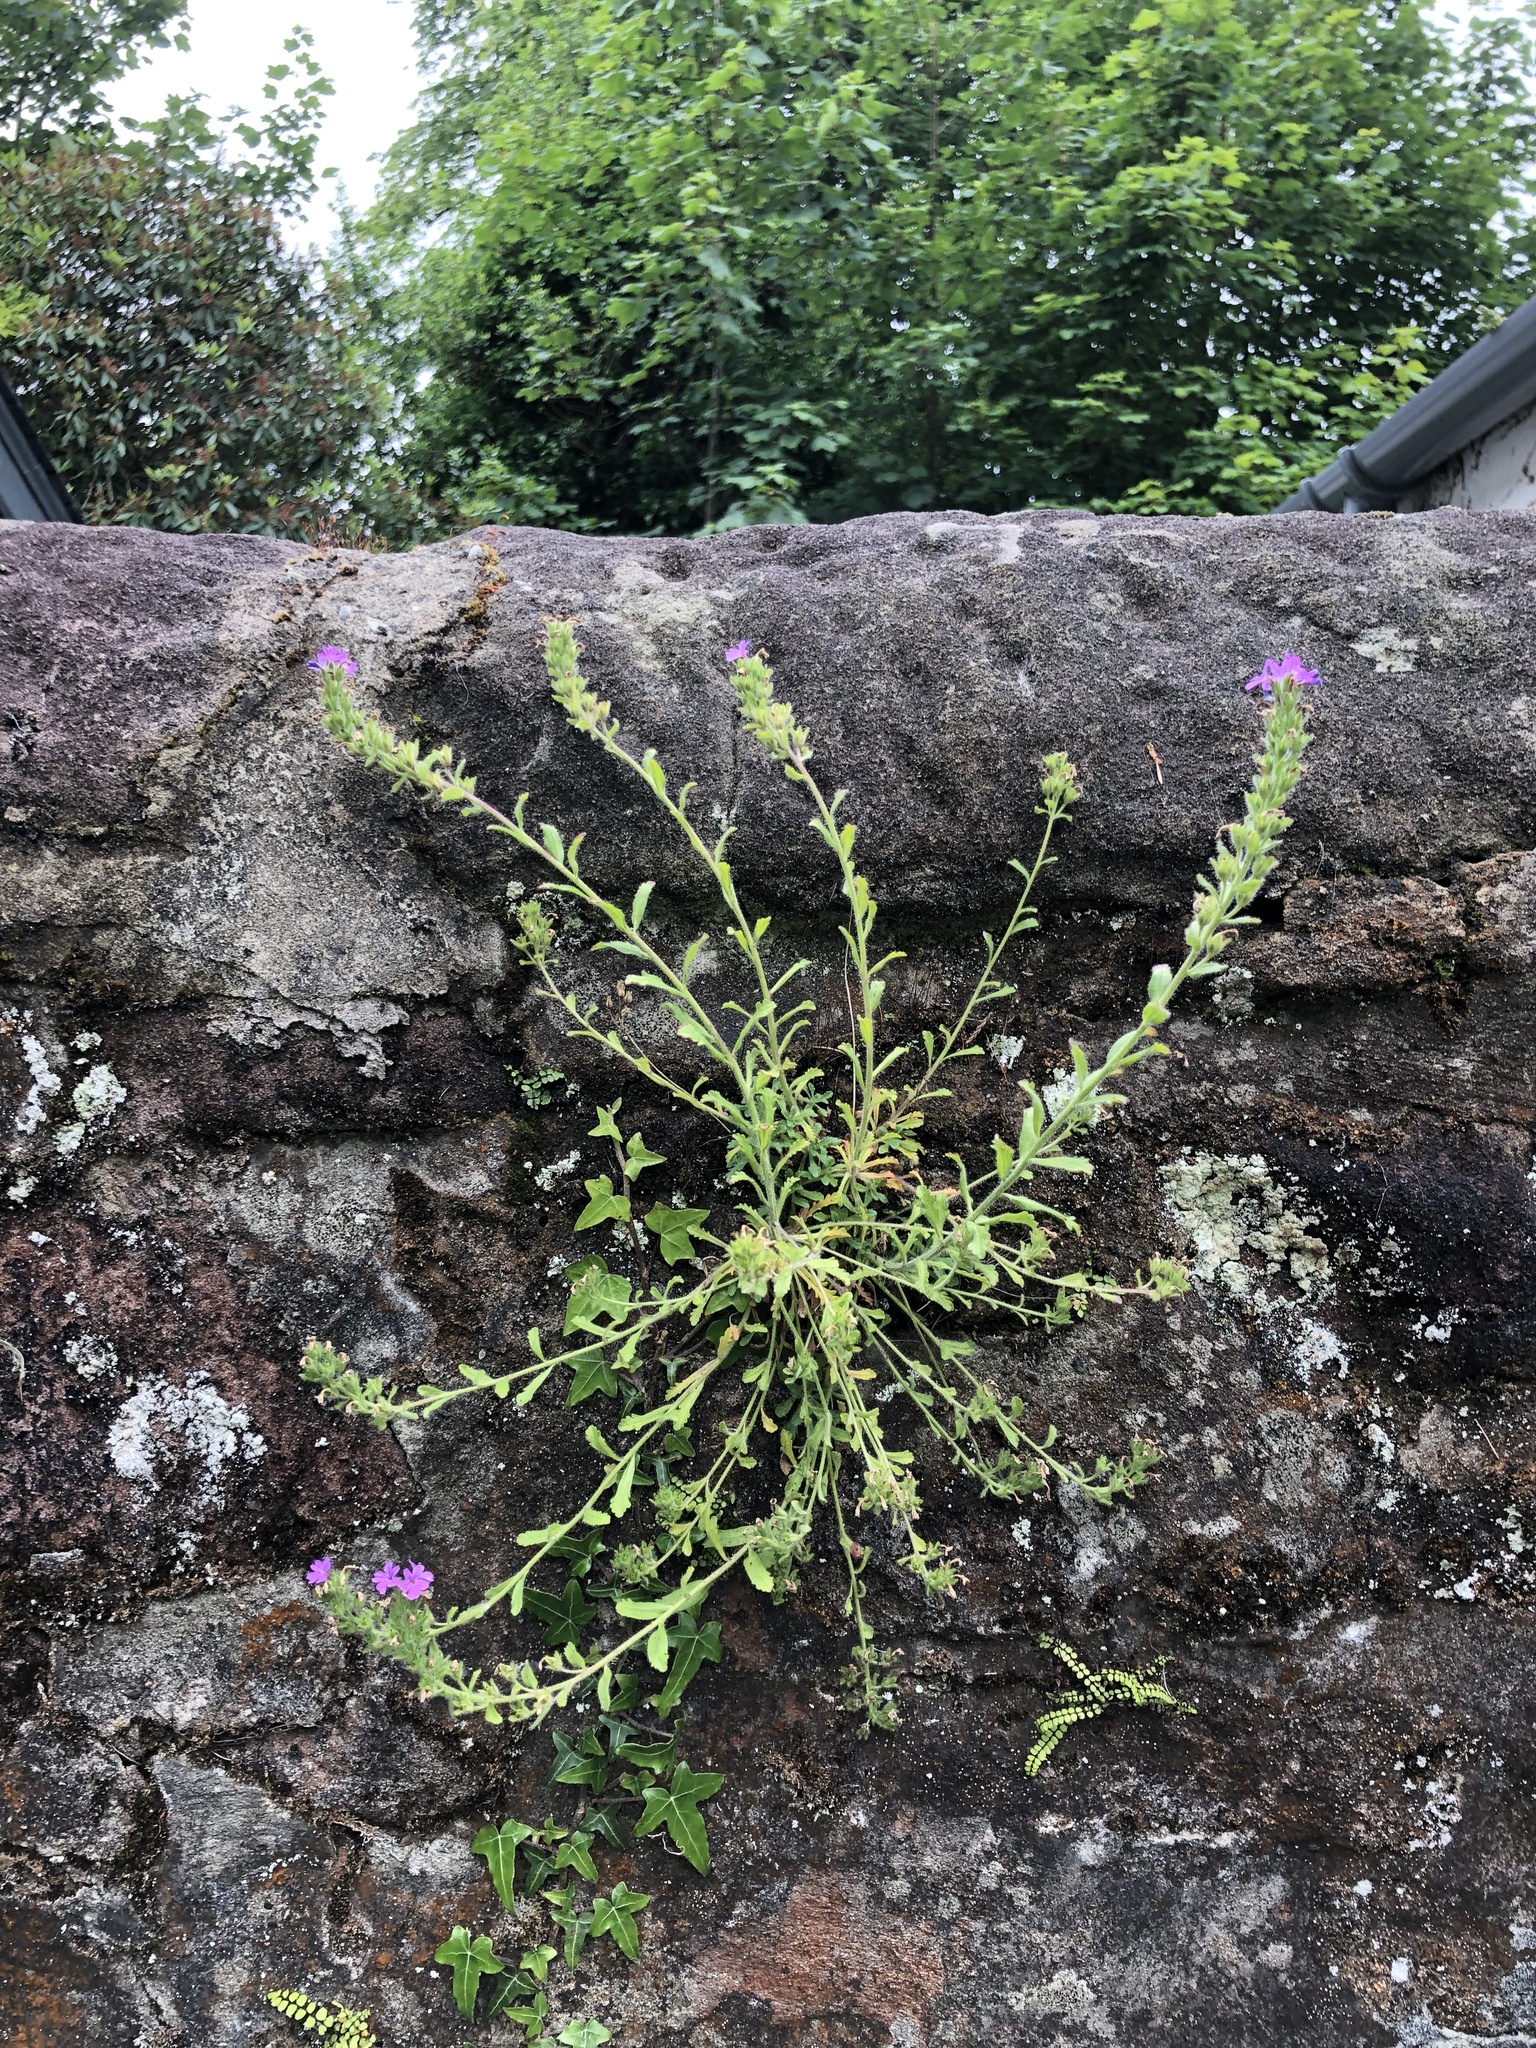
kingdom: Plantae
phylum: Tracheophyta
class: Magnoliopsida
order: Lamiales
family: Plantaginaceae
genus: Erinus
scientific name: Erinus alpinus
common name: Fairy foxglove
